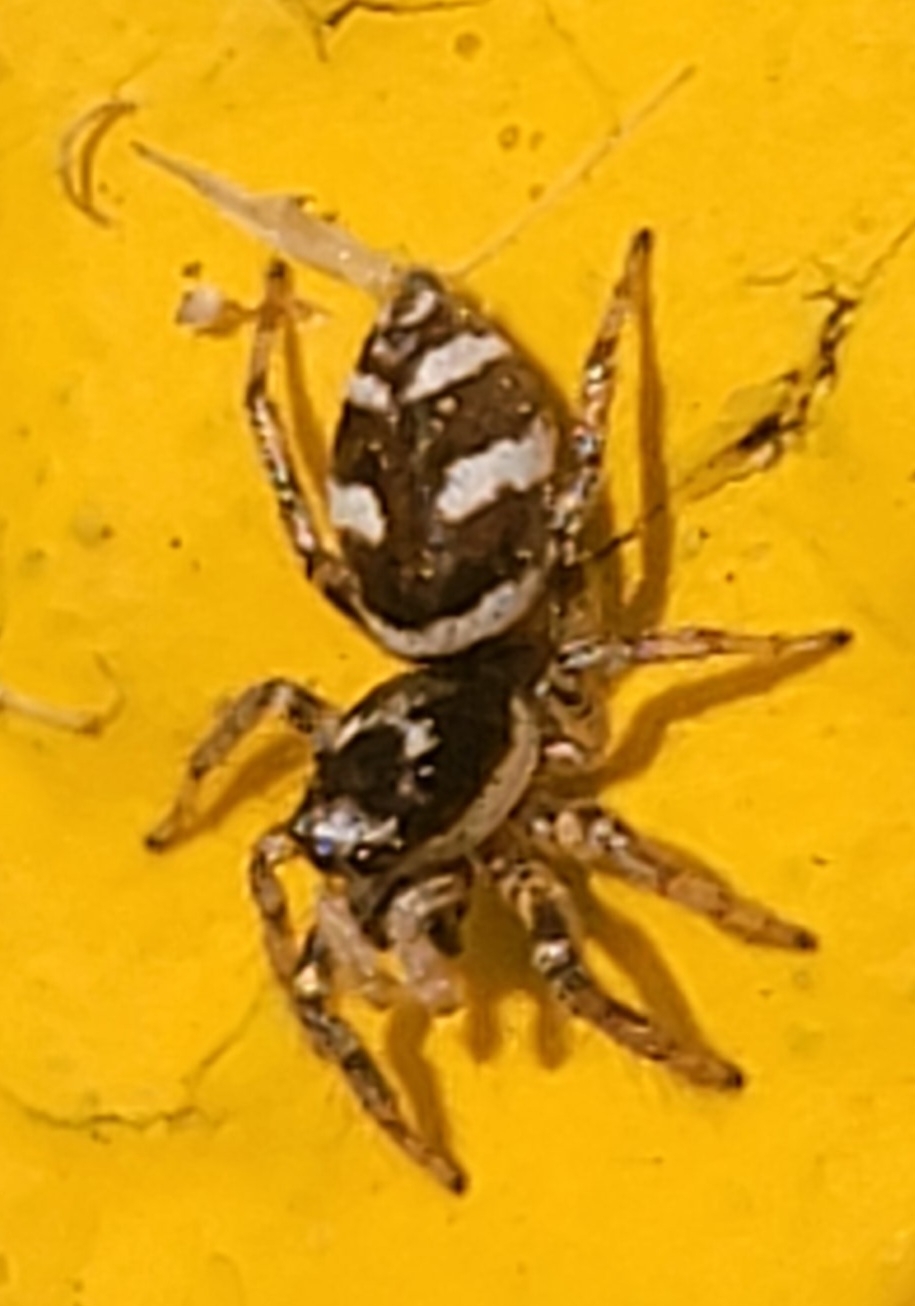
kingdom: Animalia
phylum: Arthropoda
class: Arachnida
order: Araneae
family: Salticidae
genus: Salticus
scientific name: Salticus scenicus
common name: Zebra jumper
